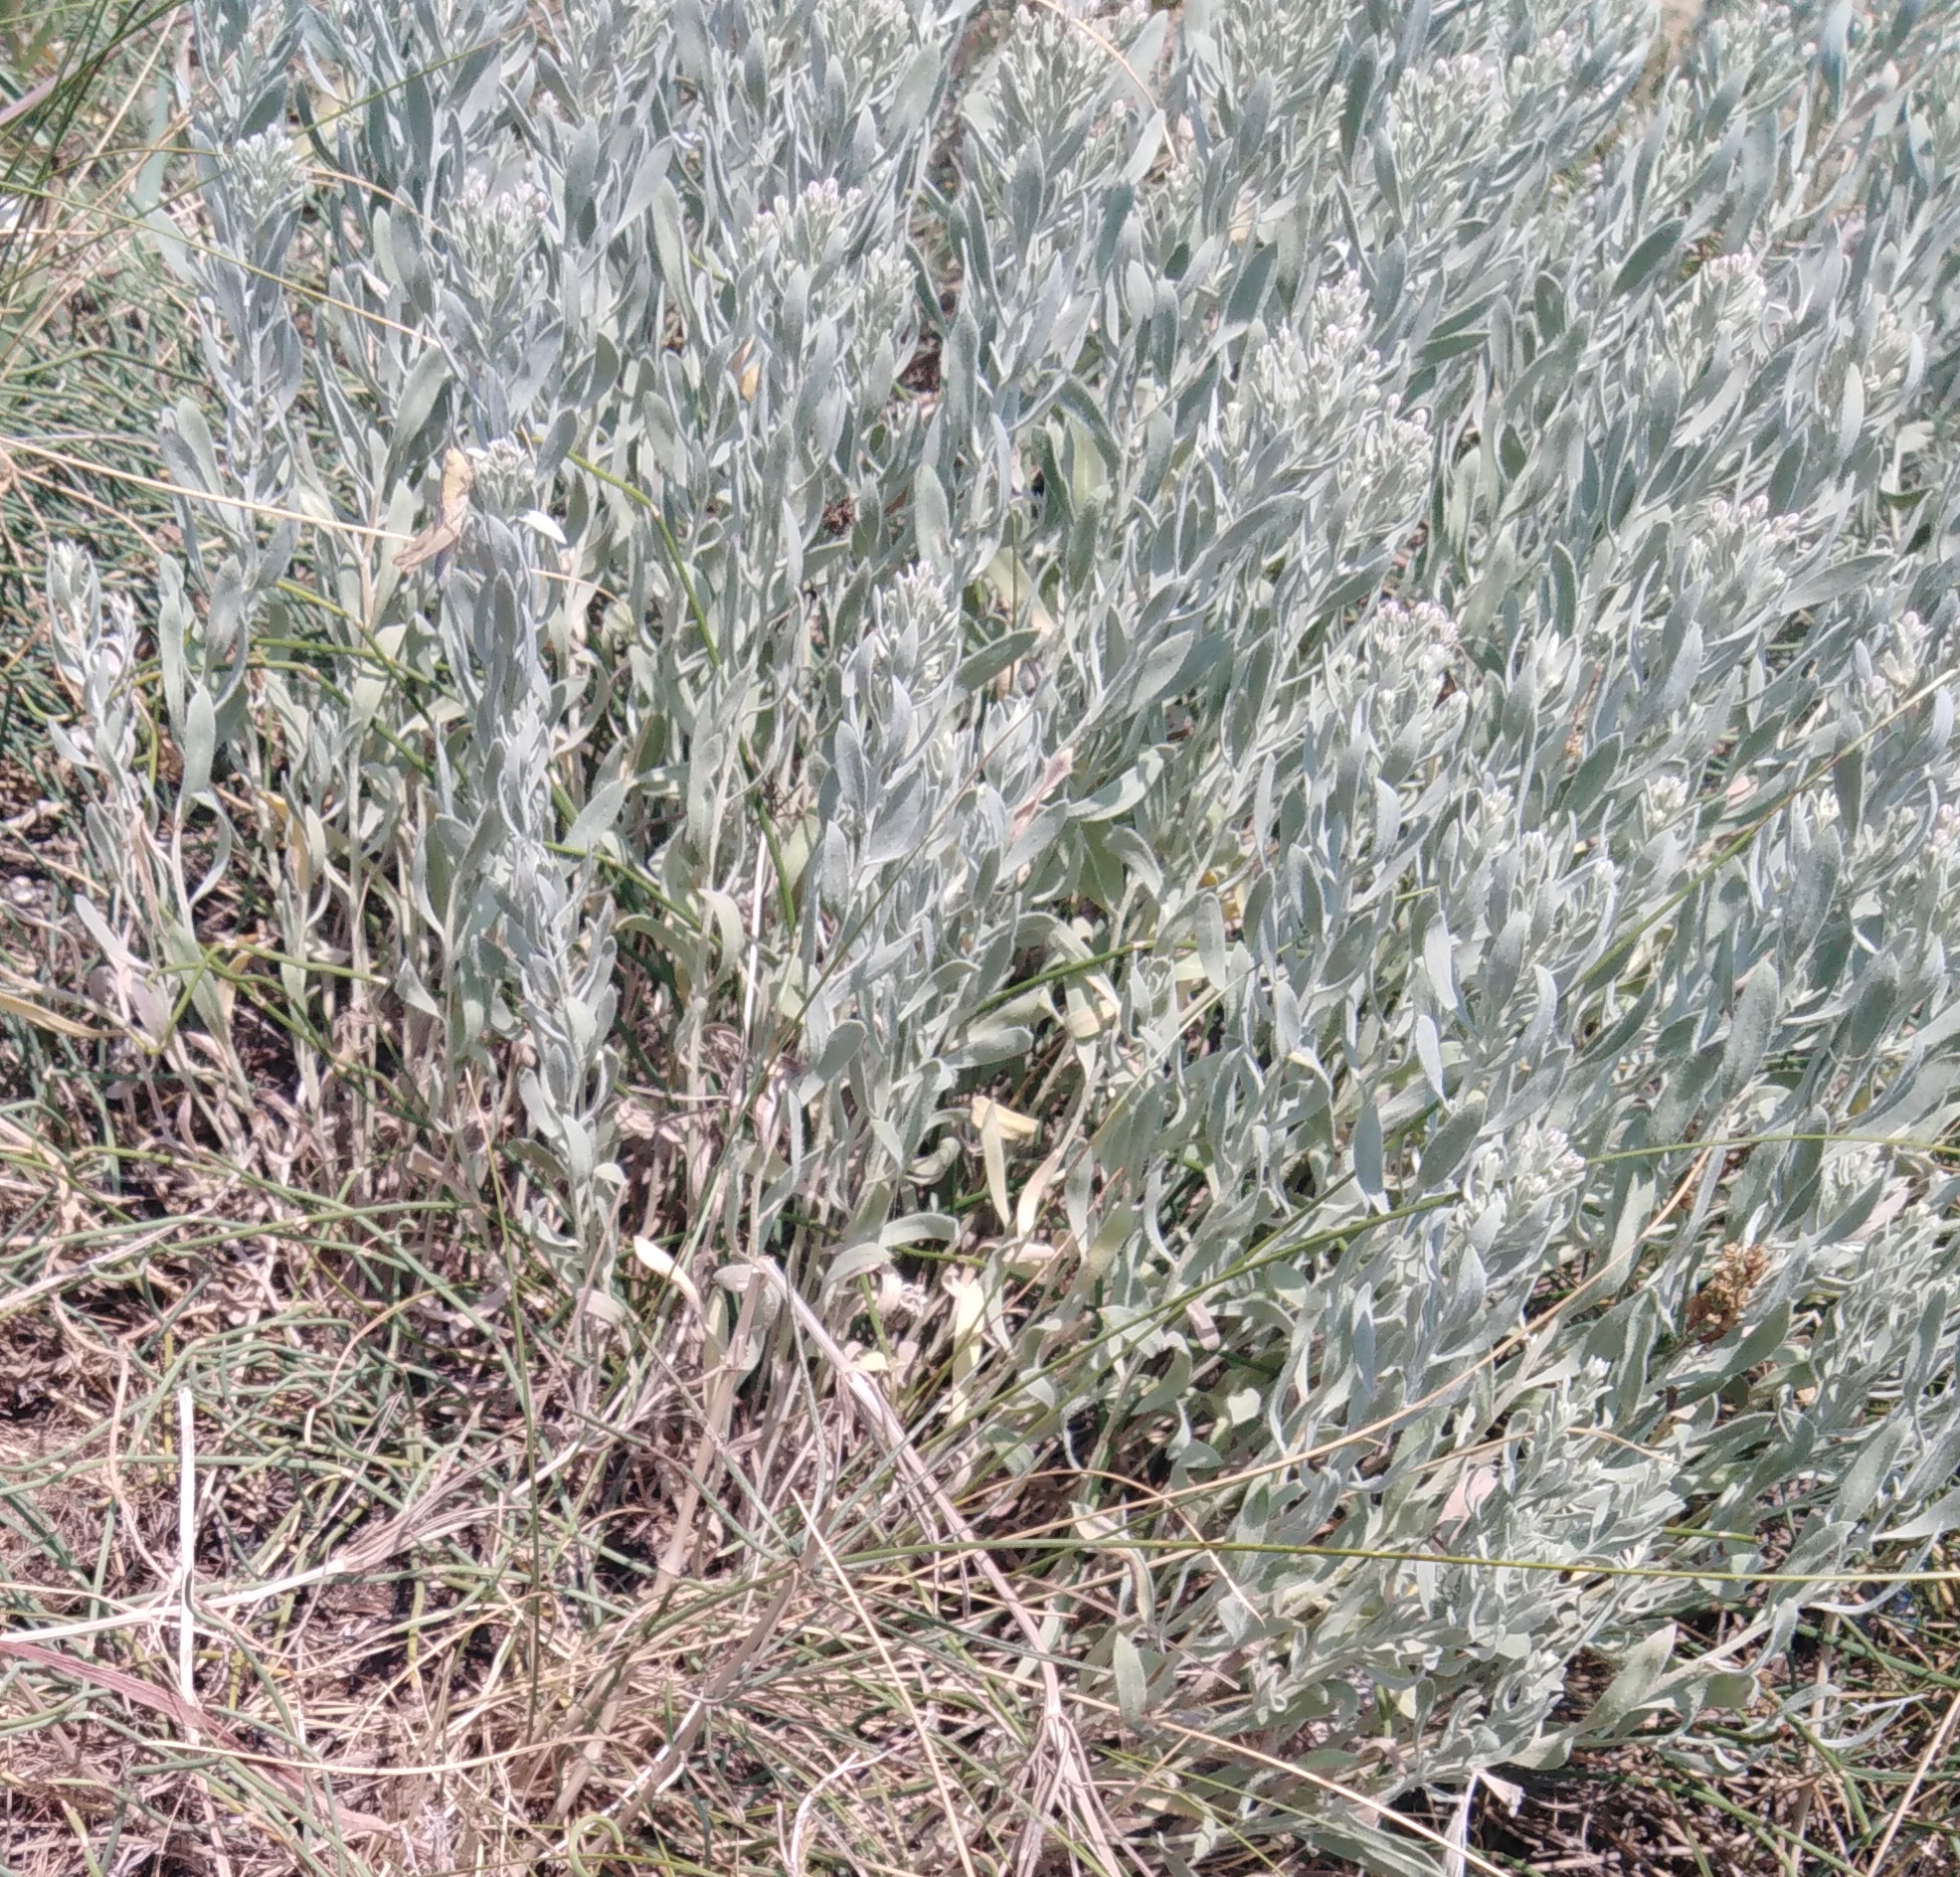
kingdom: Plantae
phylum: Tracheophyta
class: Magnoliopsida
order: Asterales
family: Asteraceae
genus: Galatella
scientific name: Galatella villosa
